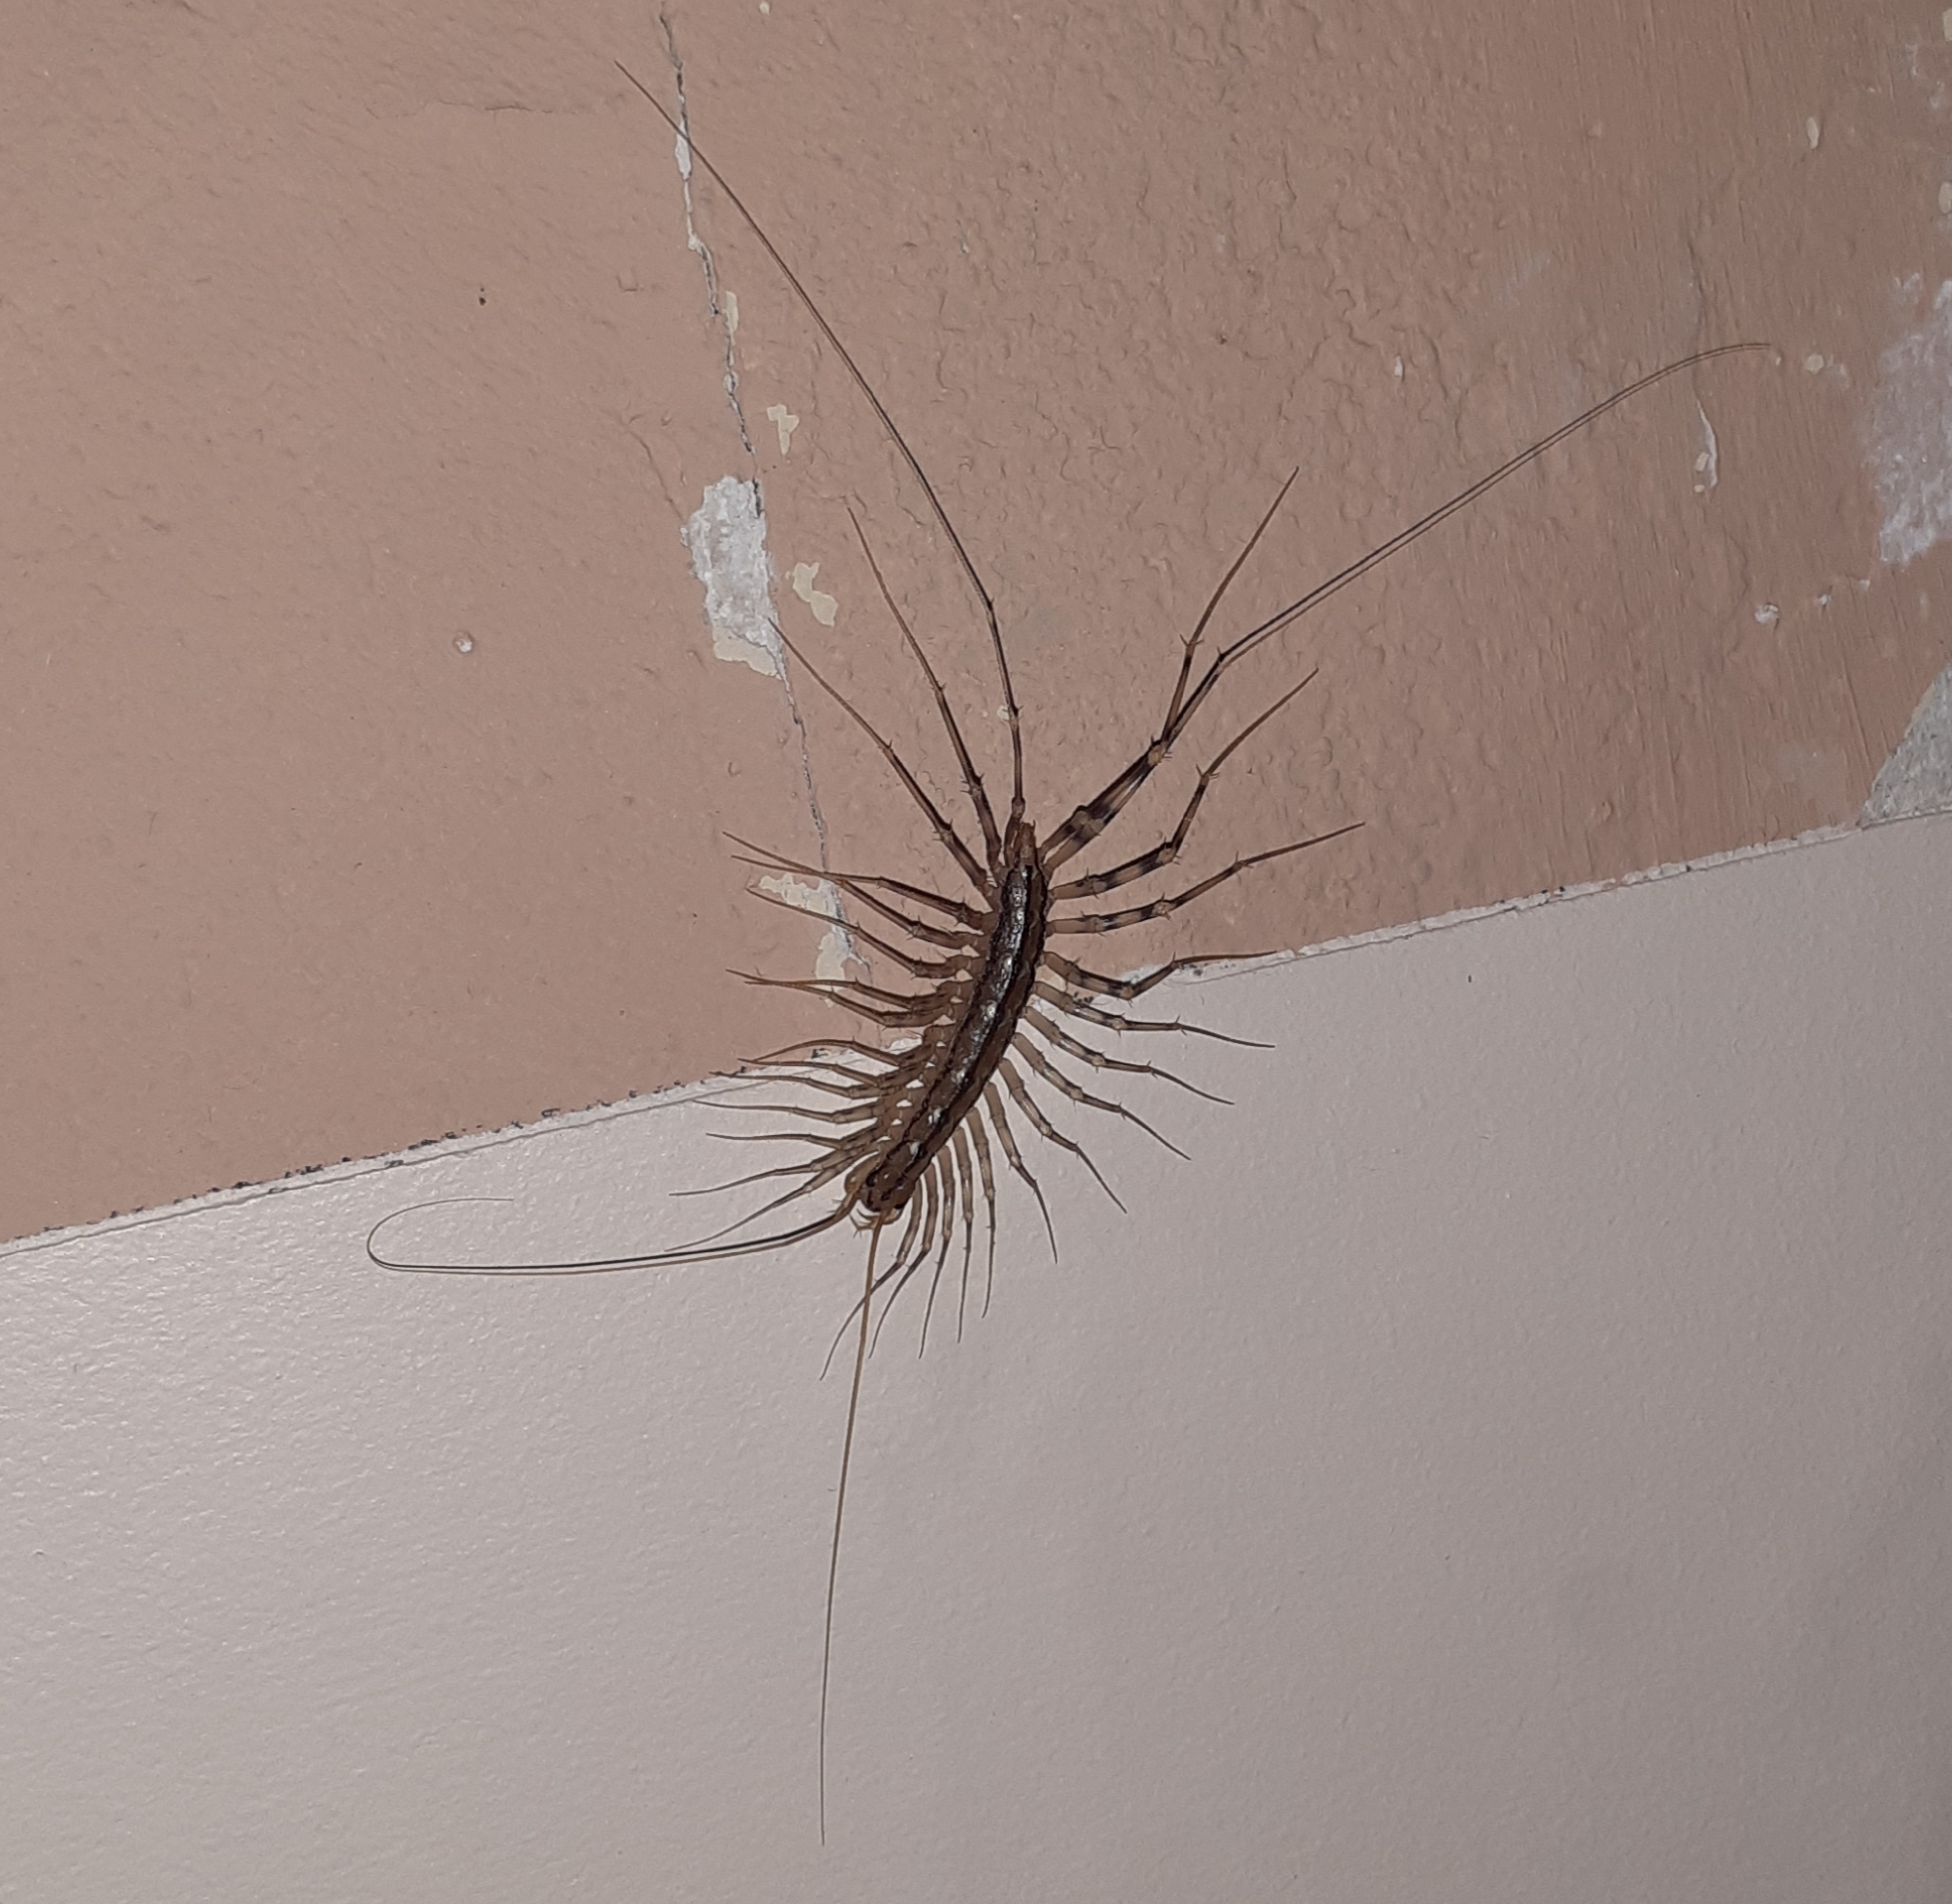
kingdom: Animalia
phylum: Arthropoda
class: Chilopoda
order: Scutigeromorpha
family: Scutigeridae
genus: Scutigera
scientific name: Scutigera coleoptrata
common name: House centipede
